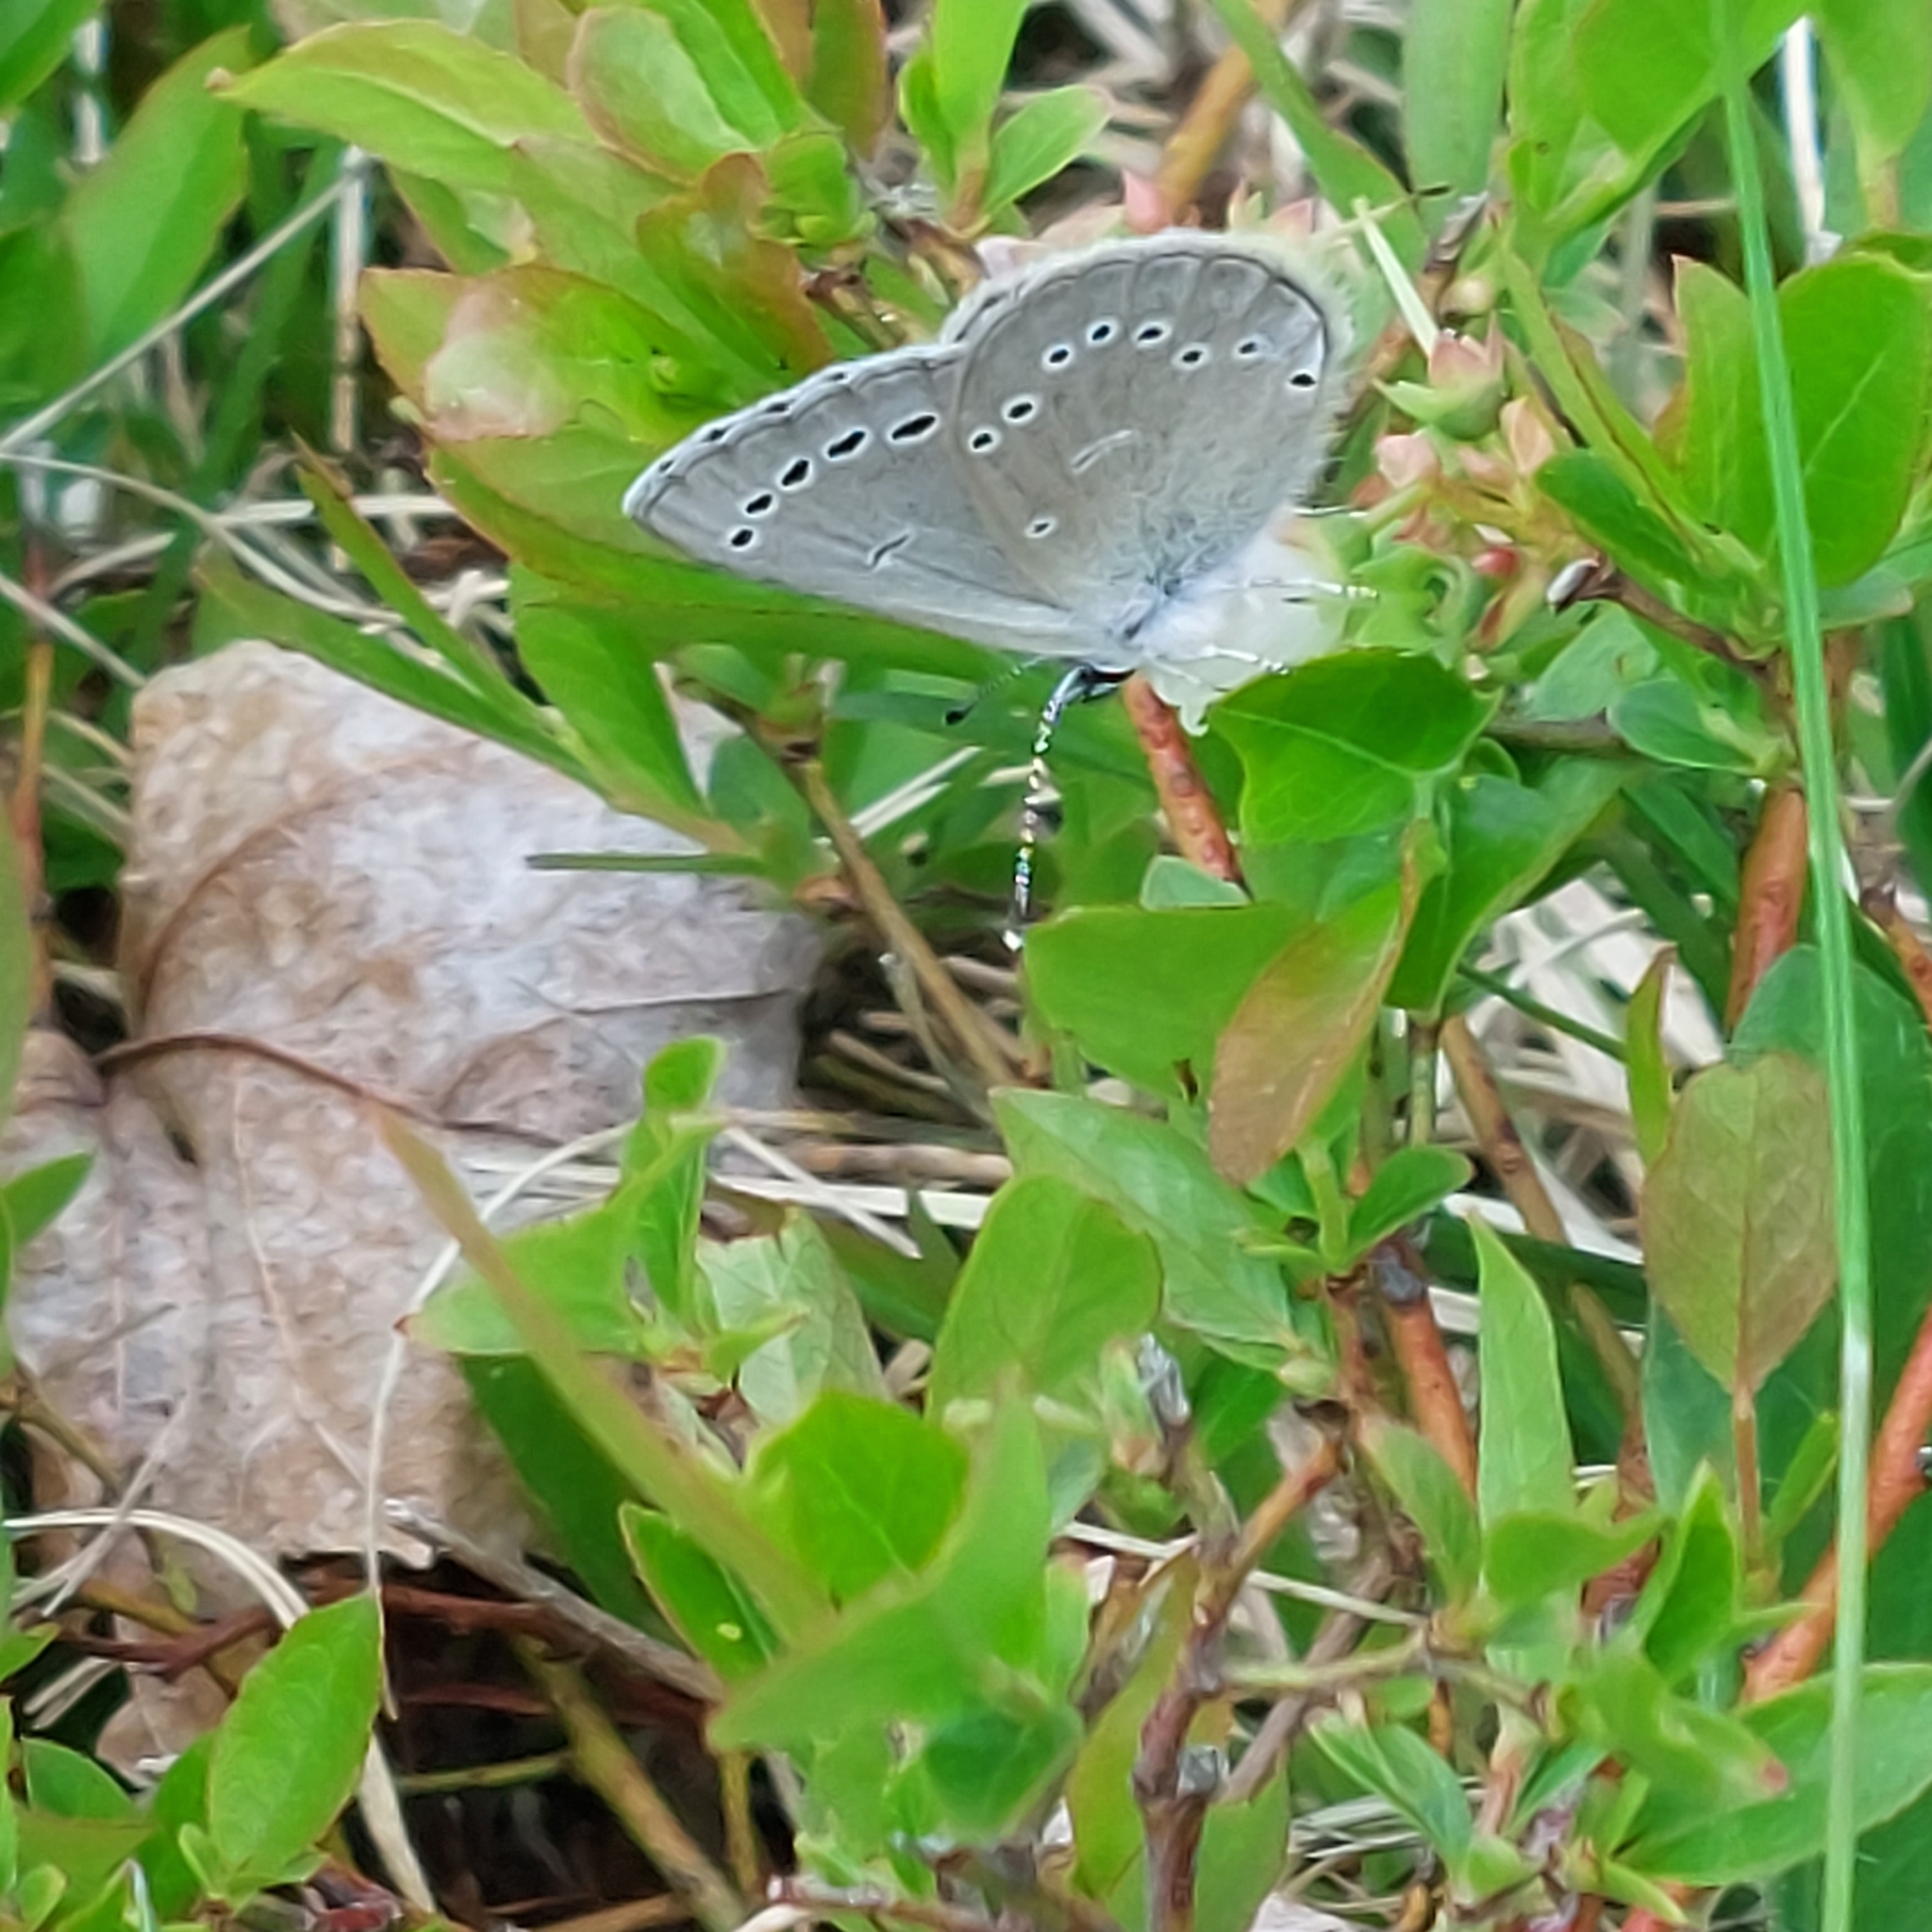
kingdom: Animalia
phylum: Arthropoda
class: Insecta
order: Lepidoptera
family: Lycaenidae
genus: Glaucopsyche
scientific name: Glaucopsyche lygdamus
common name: Silvery blue
